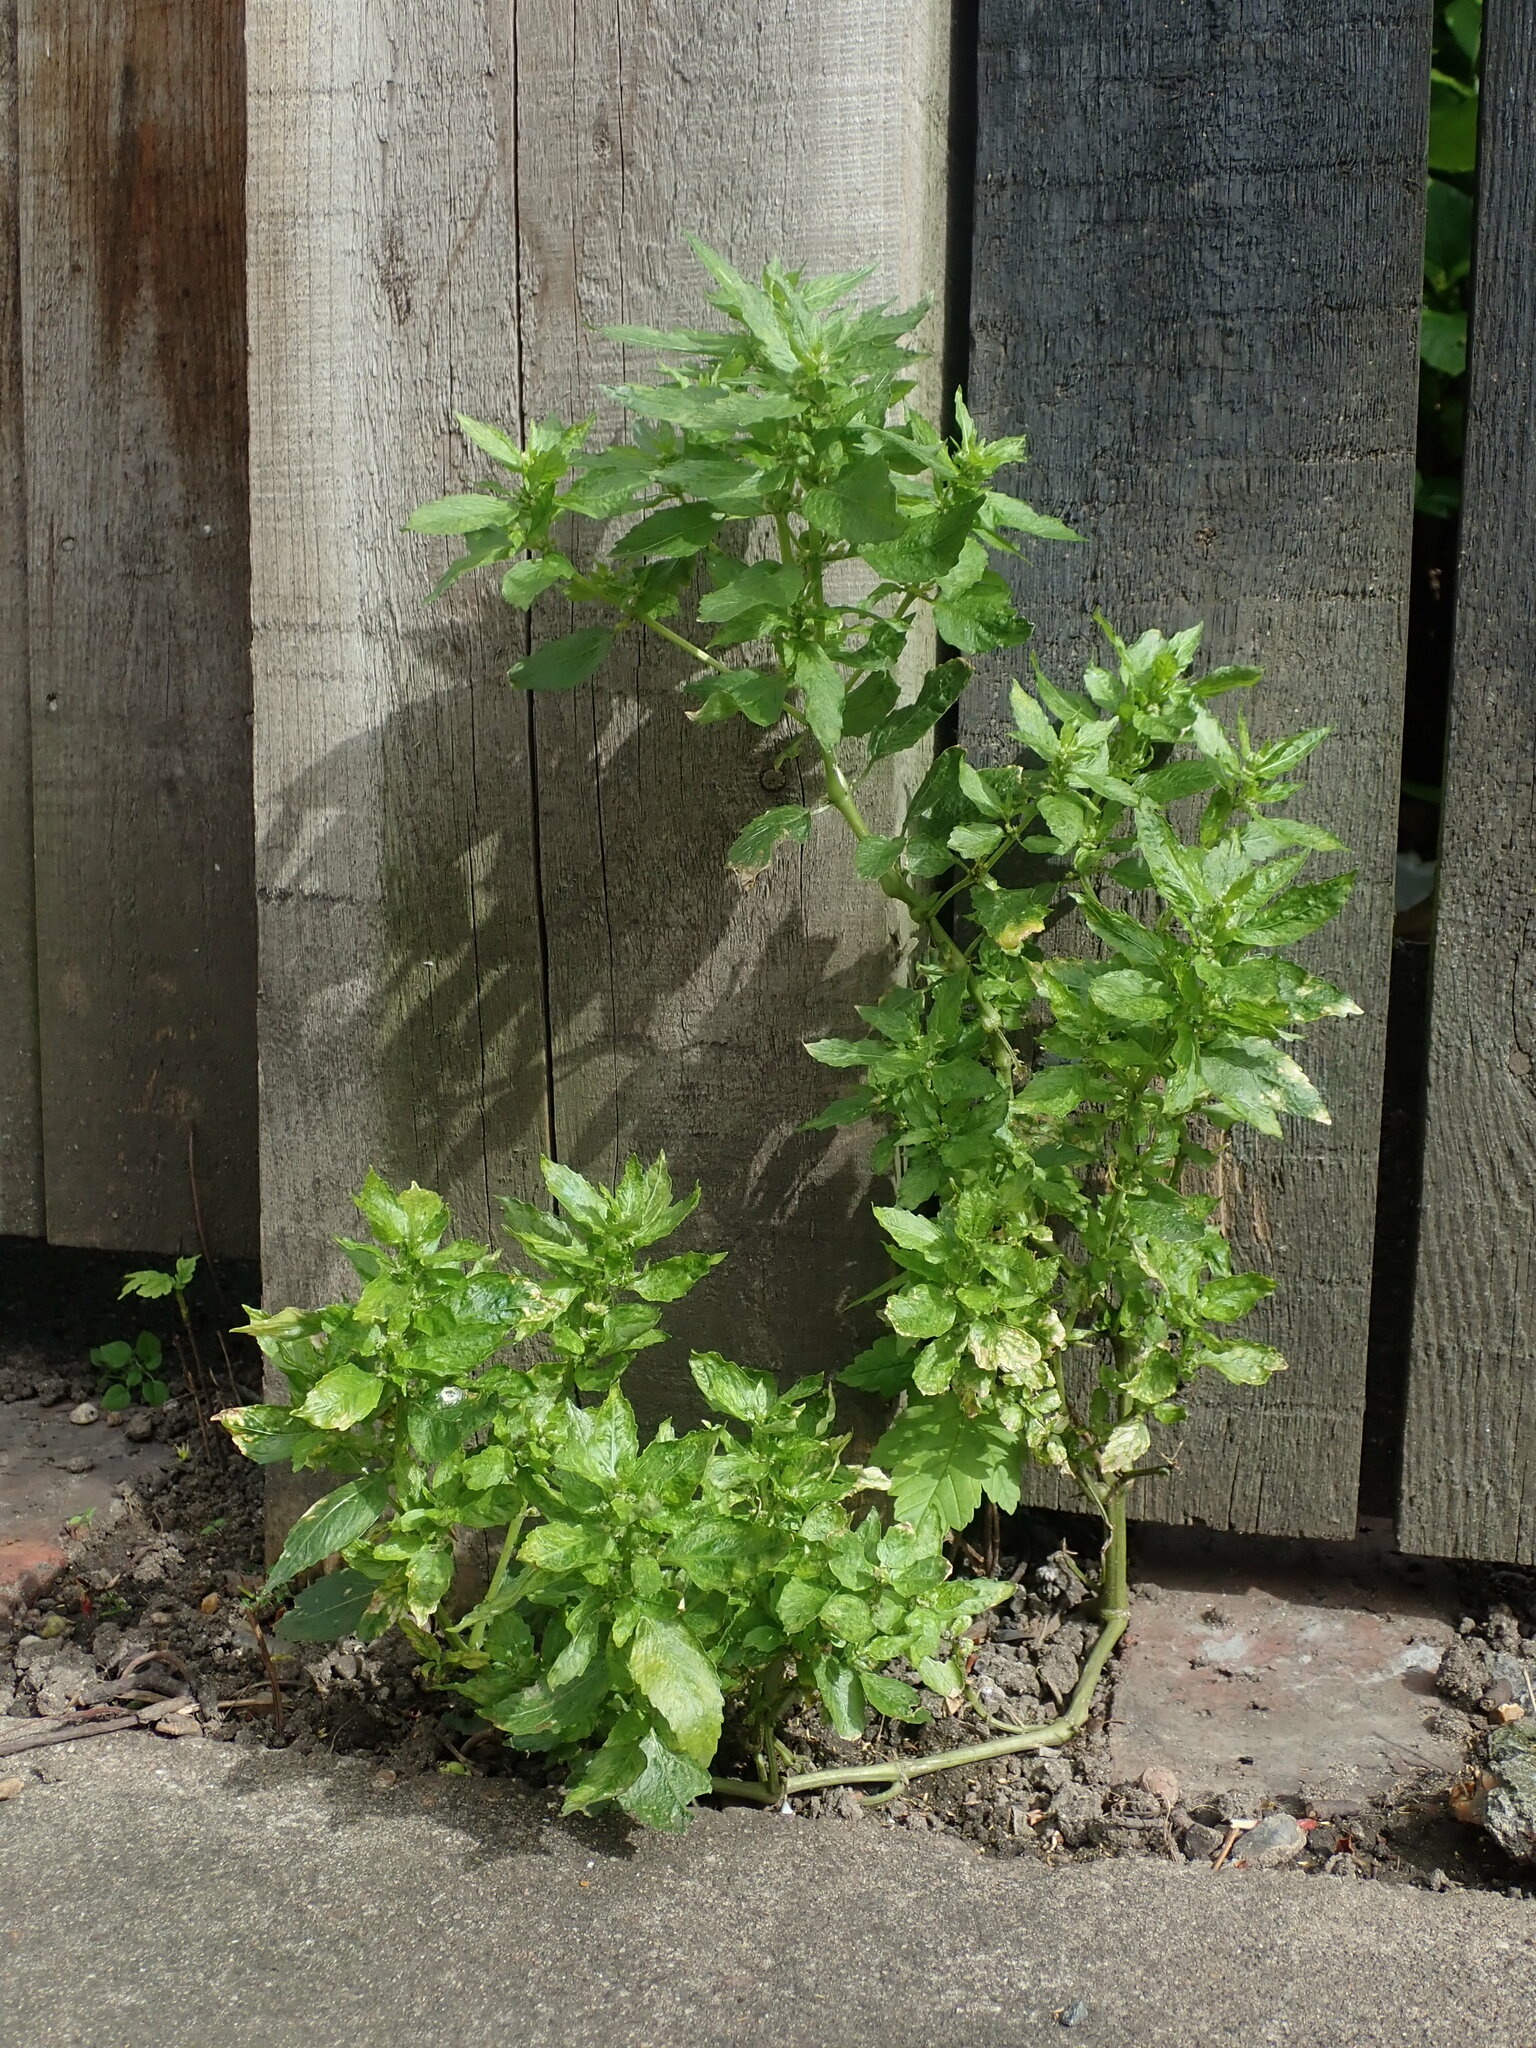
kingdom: Plantae
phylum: Tracheophyta
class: Magnoliopsida
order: Malpighiales
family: Euphorbiaceae
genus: Mercurialis
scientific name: Mercurialis annua
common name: Annual mercury
